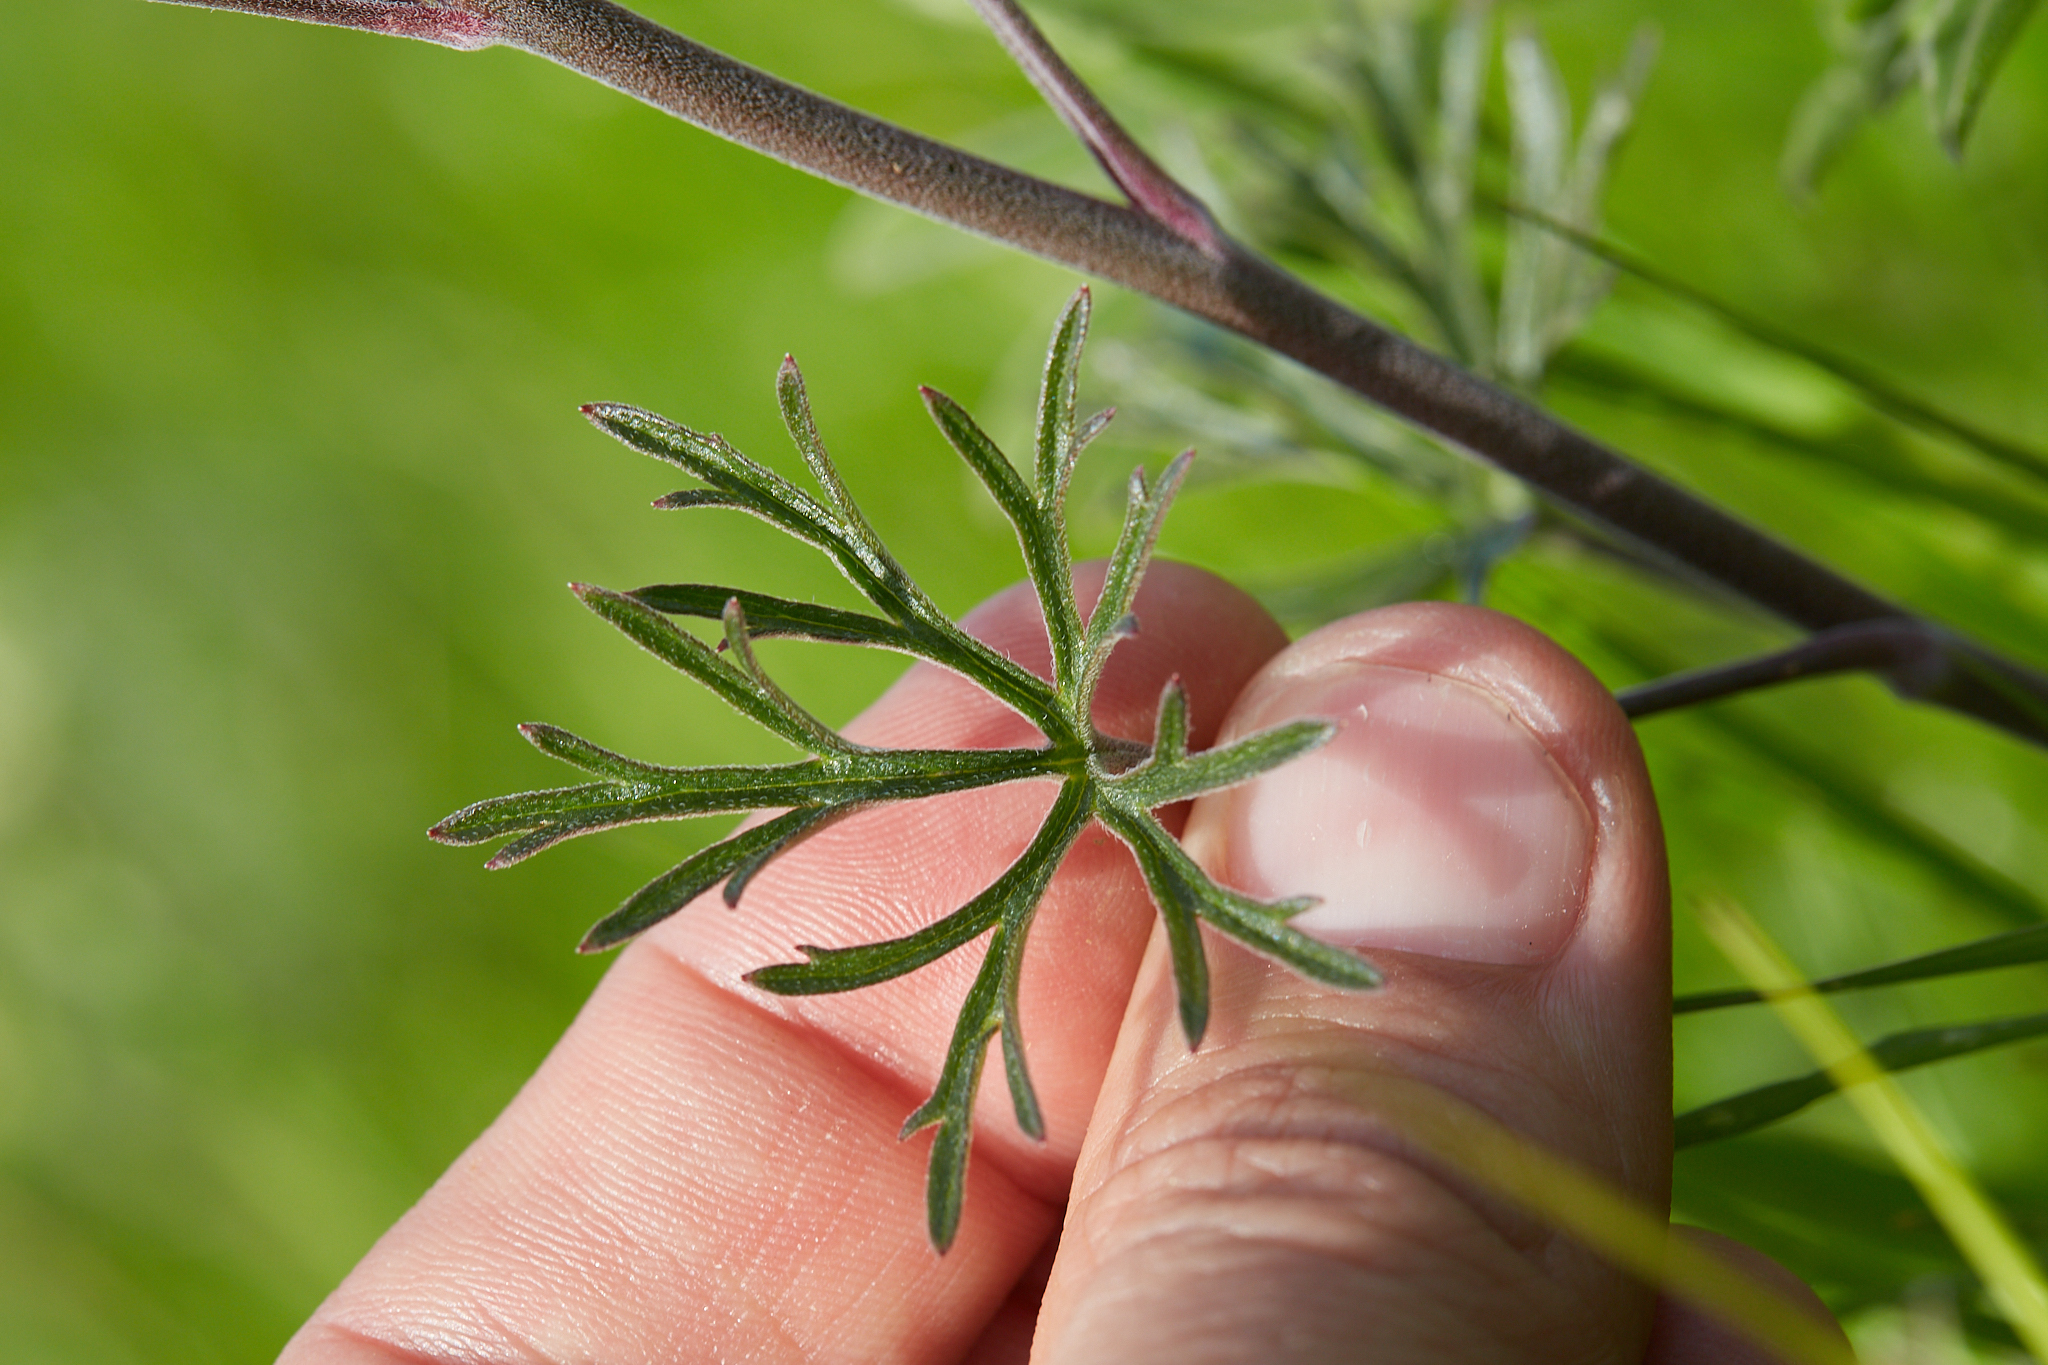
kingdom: Plantae
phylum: Tracheophyta
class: Magnoliopsida
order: Ranunculales
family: Ranunculaceae
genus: Delphinium
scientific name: Delphinium hesperium
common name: Western larkspur
